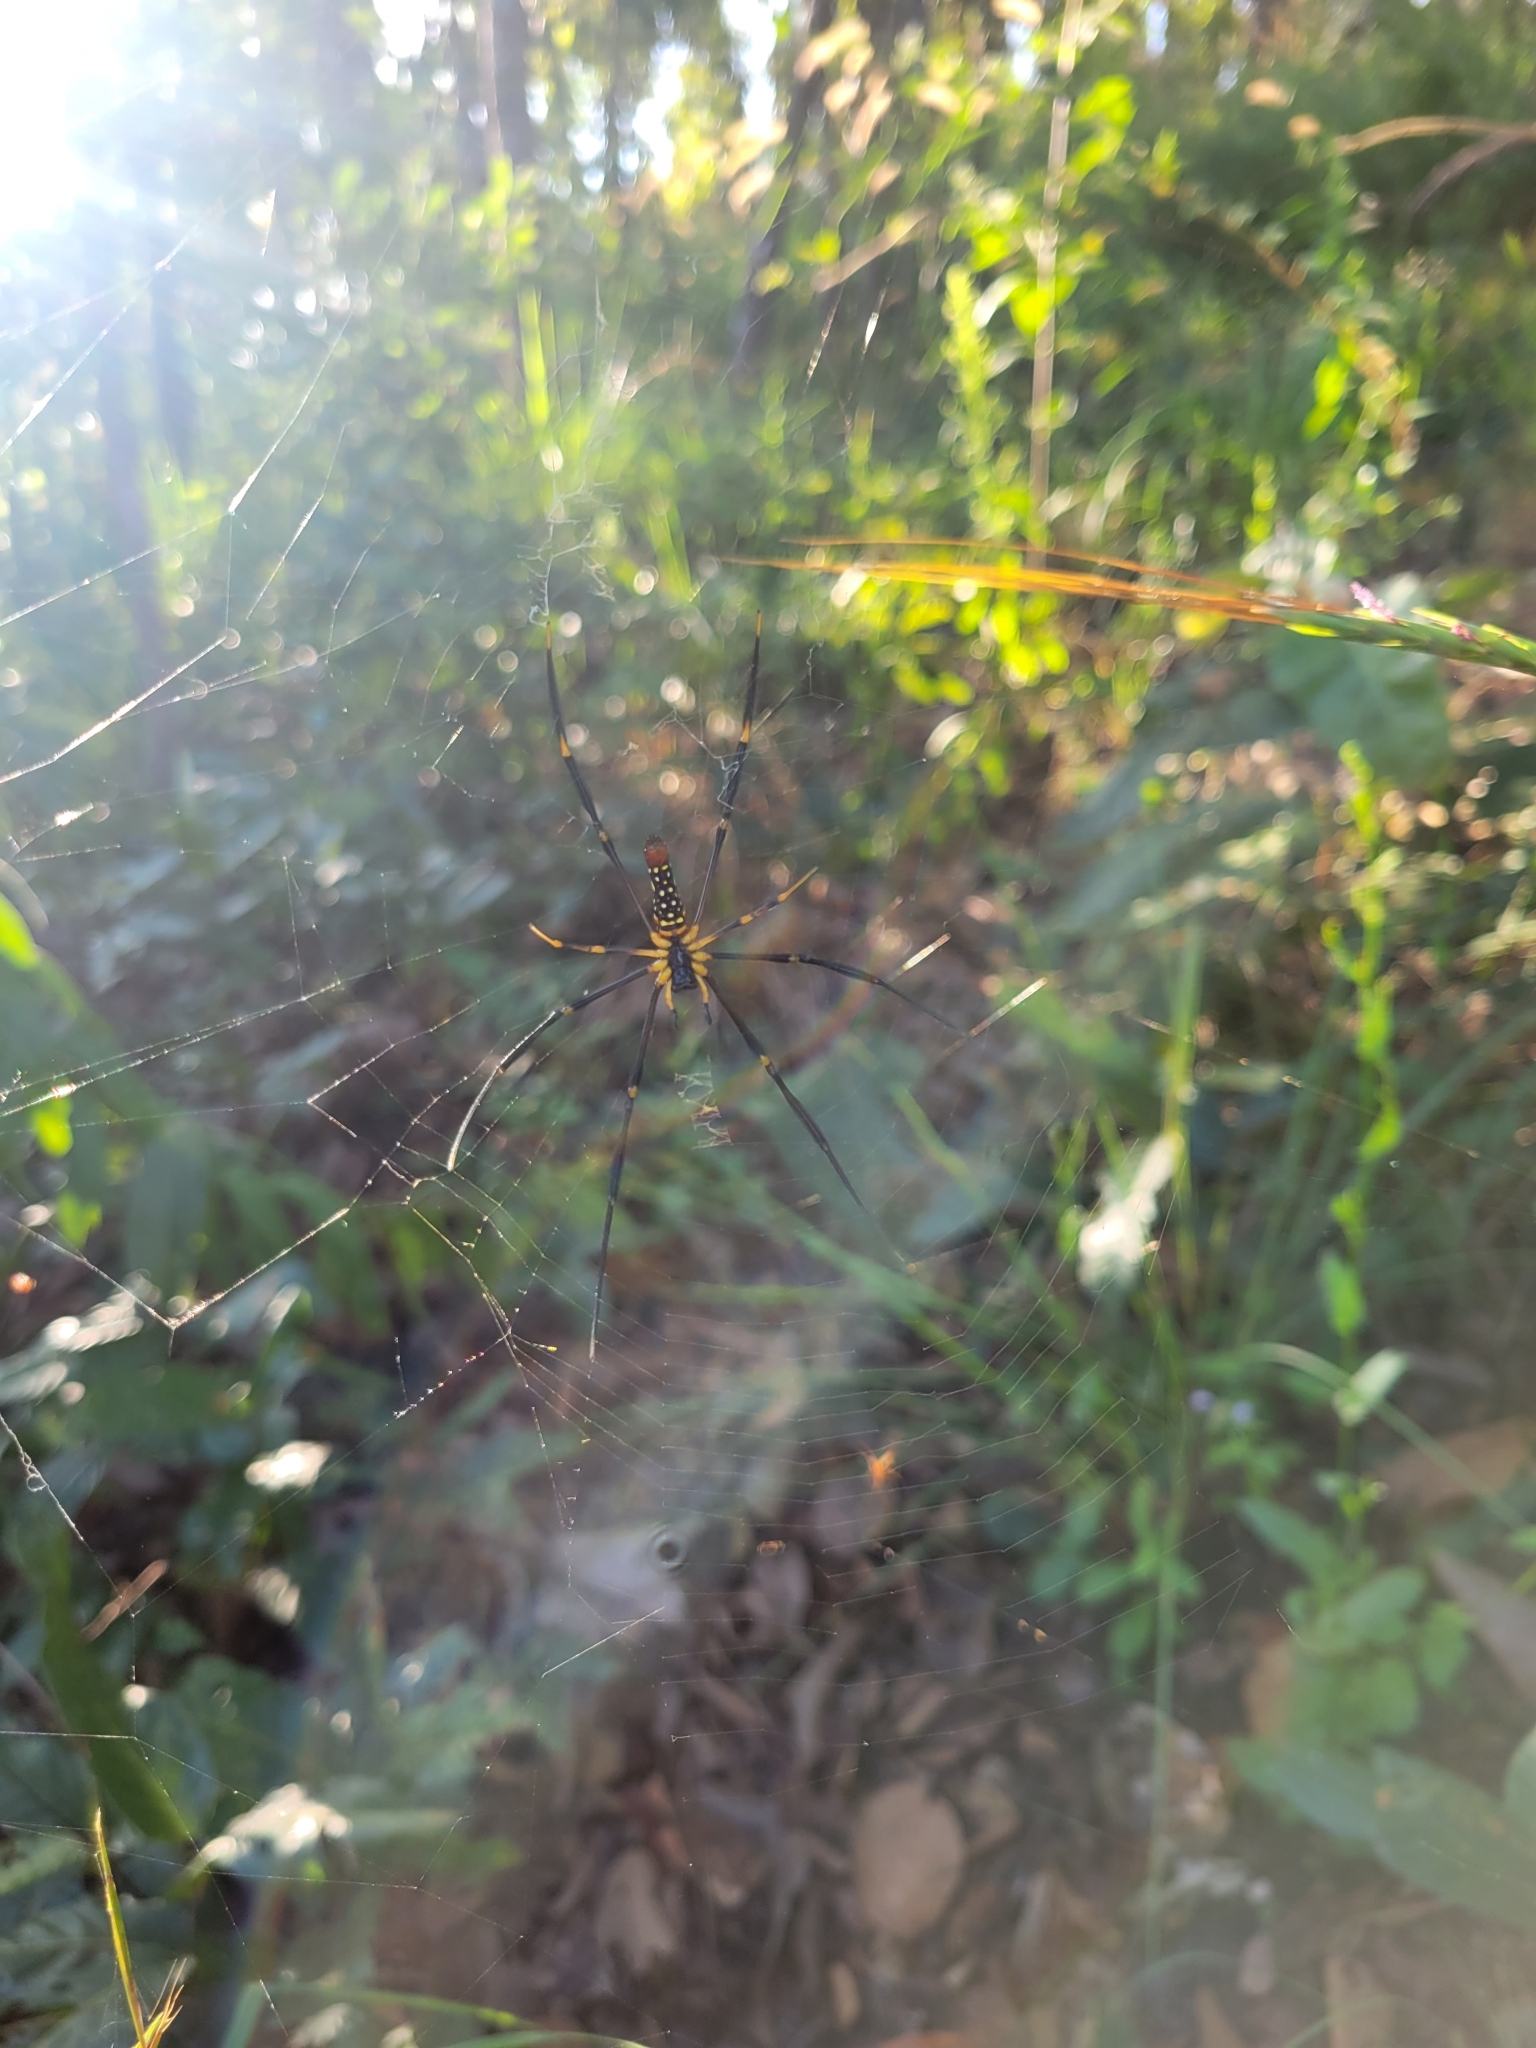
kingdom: Animalia
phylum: Arthropoda
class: Arachnida
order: Araneae
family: Araneidae
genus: Nephila
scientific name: Nephila pilipes
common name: Giant golden orb weaver
